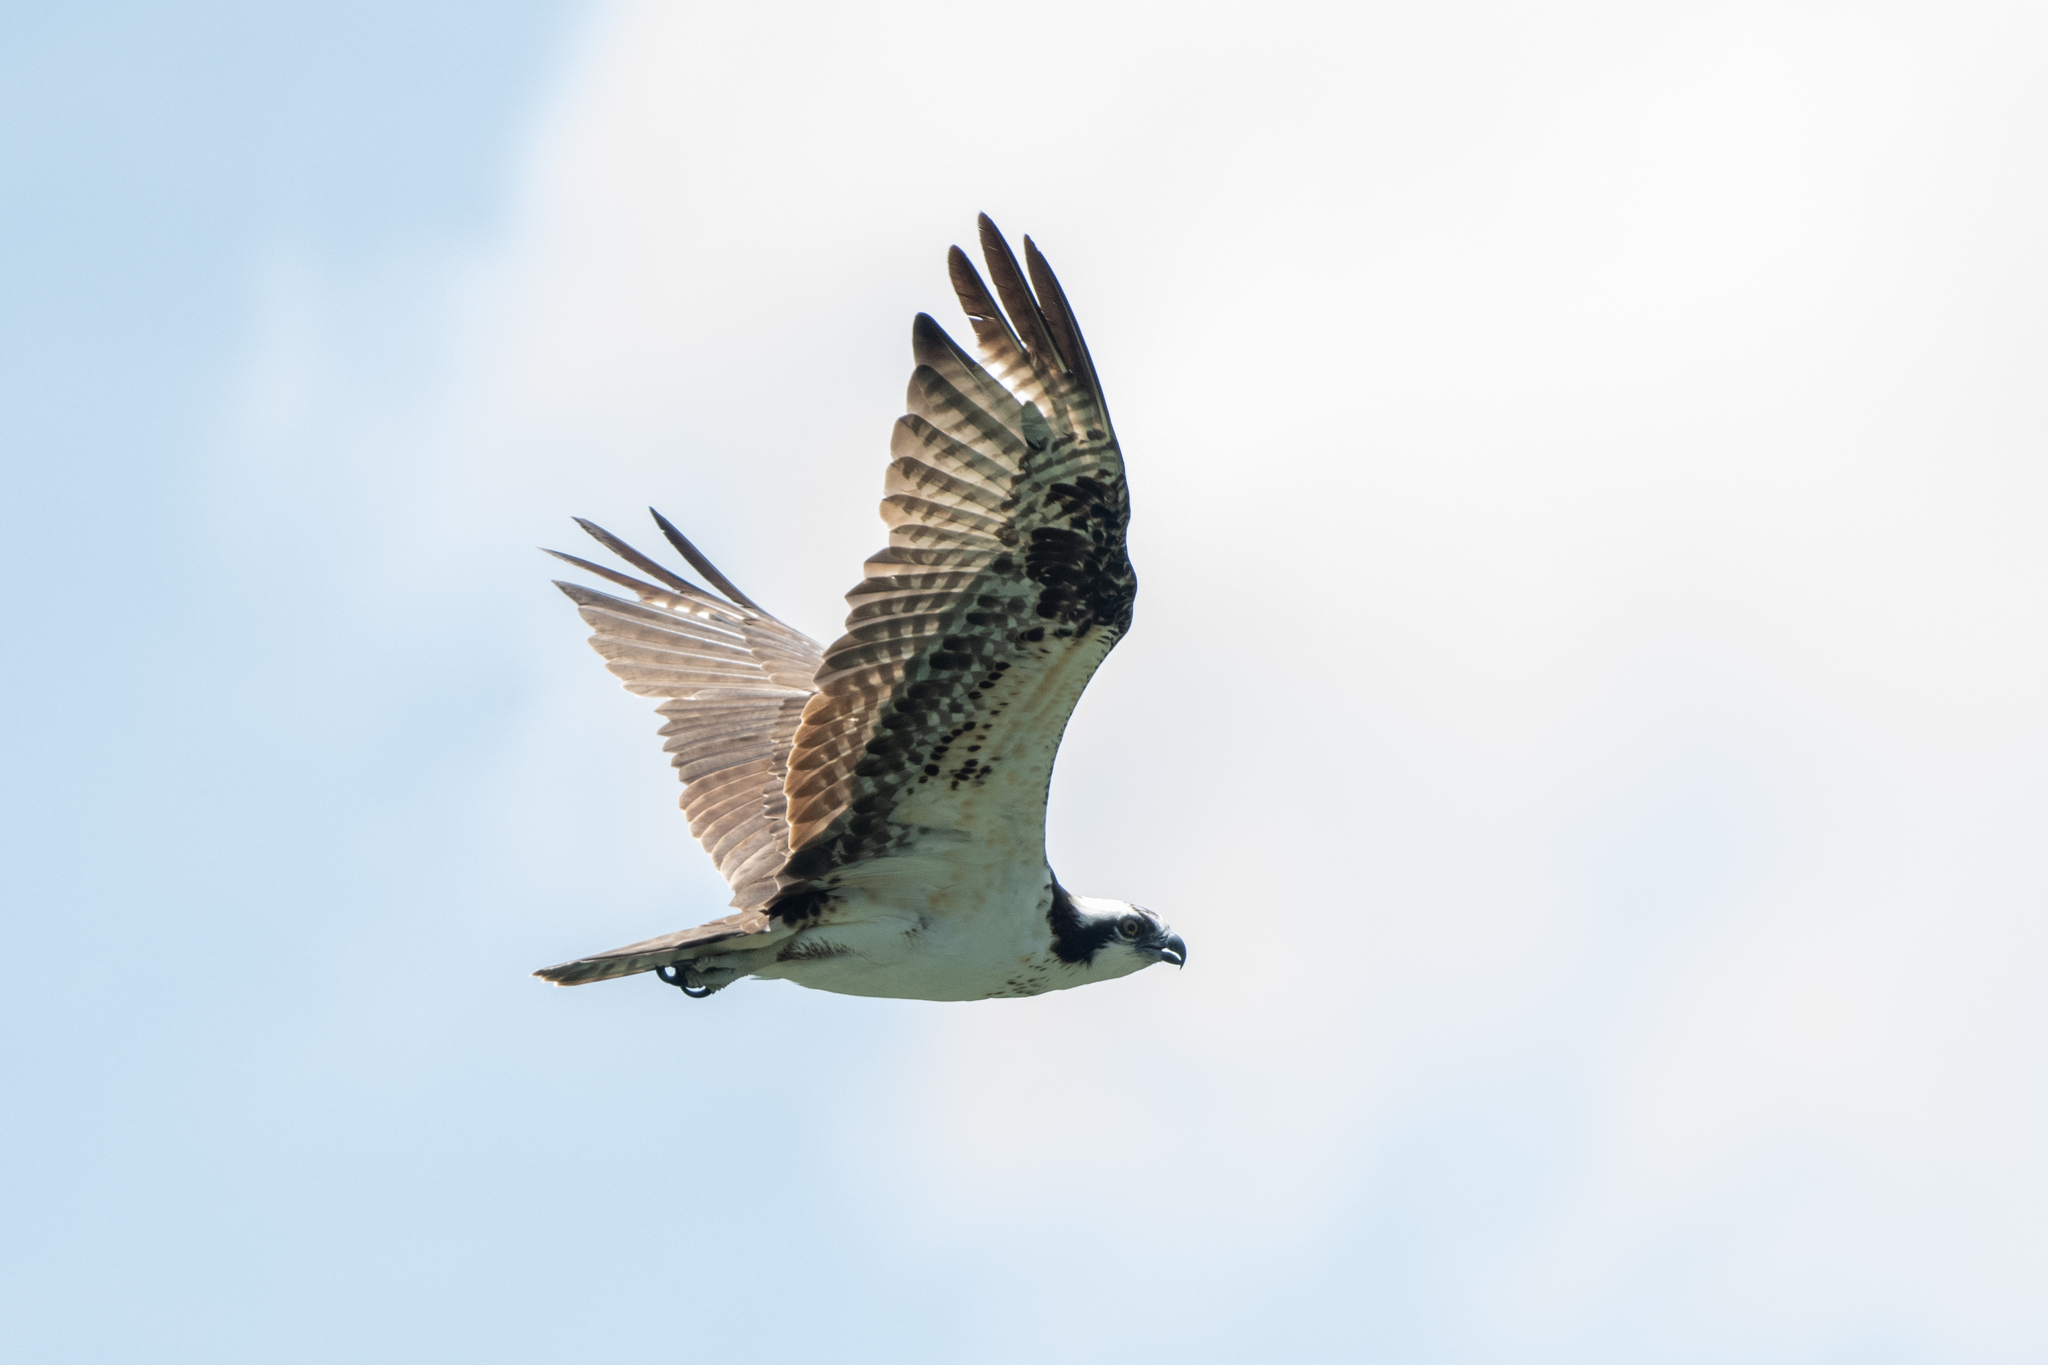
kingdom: Animalia
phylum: Chordata
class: Aves
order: Accipitriformes
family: Pandionidae
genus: Pandion
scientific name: Pandion haliaetus
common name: Osprey
